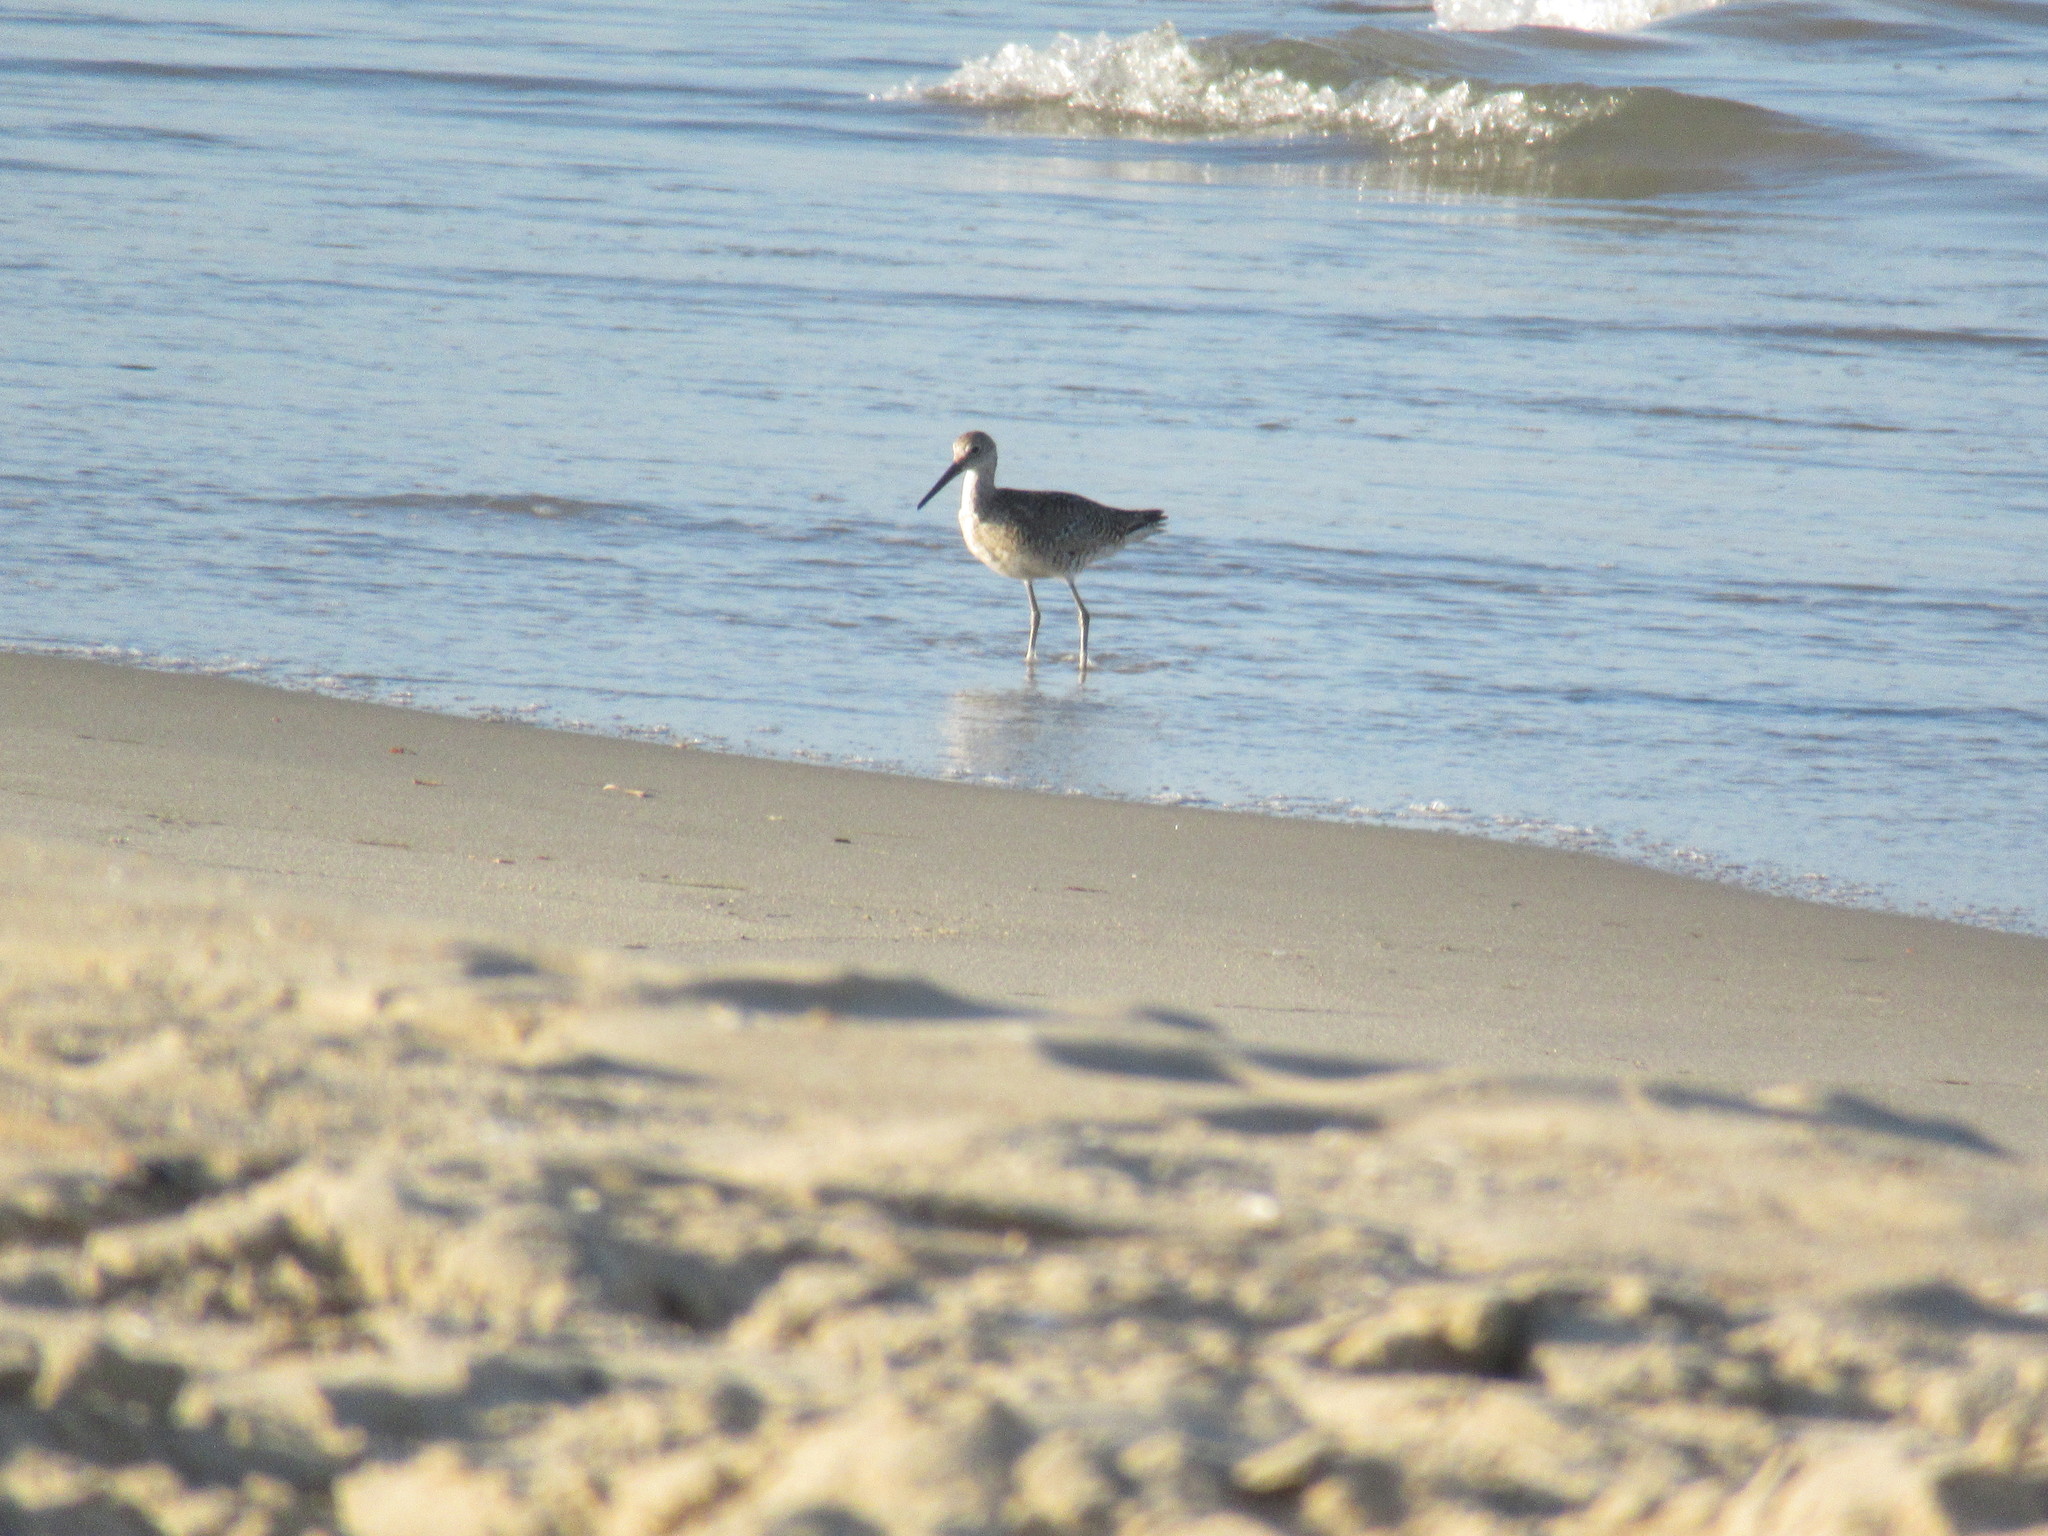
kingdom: Animalia
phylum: Chordata
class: Aves
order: Charadriiformes
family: Scolopacidae
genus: Tringa
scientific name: Tringa semipalmata
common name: Willet
